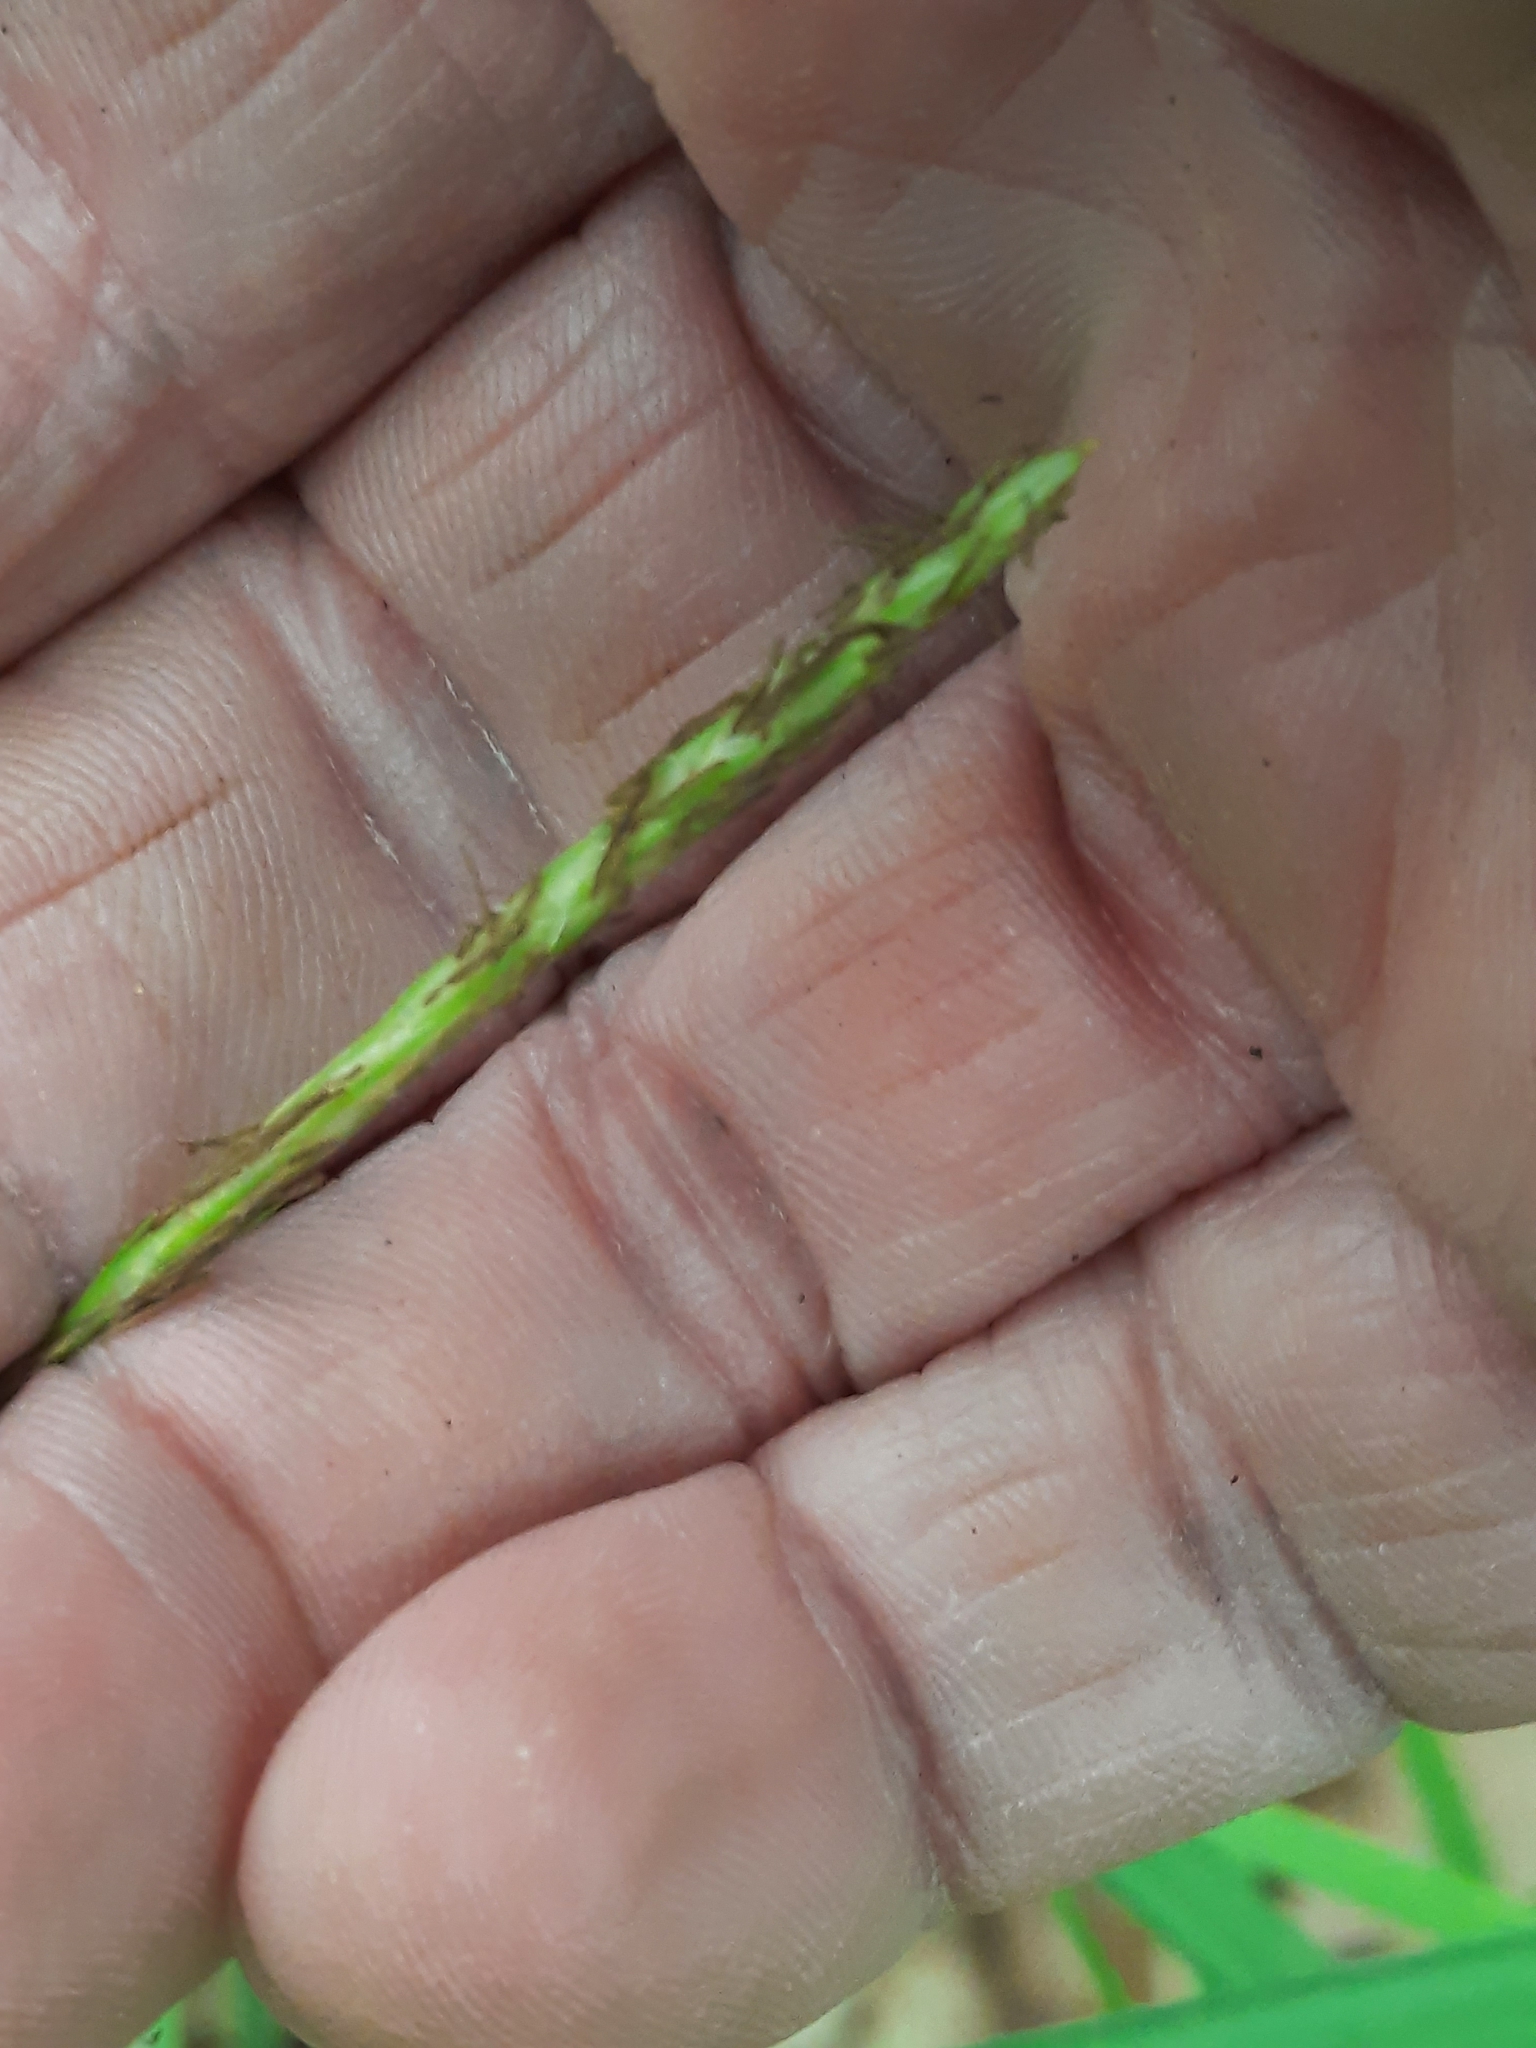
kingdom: Plantae
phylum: Tracheophyta
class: Liliopsida
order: Poales
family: Cyperaceae
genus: Carex
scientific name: Carex intumescens
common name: Greater bladder sedge
